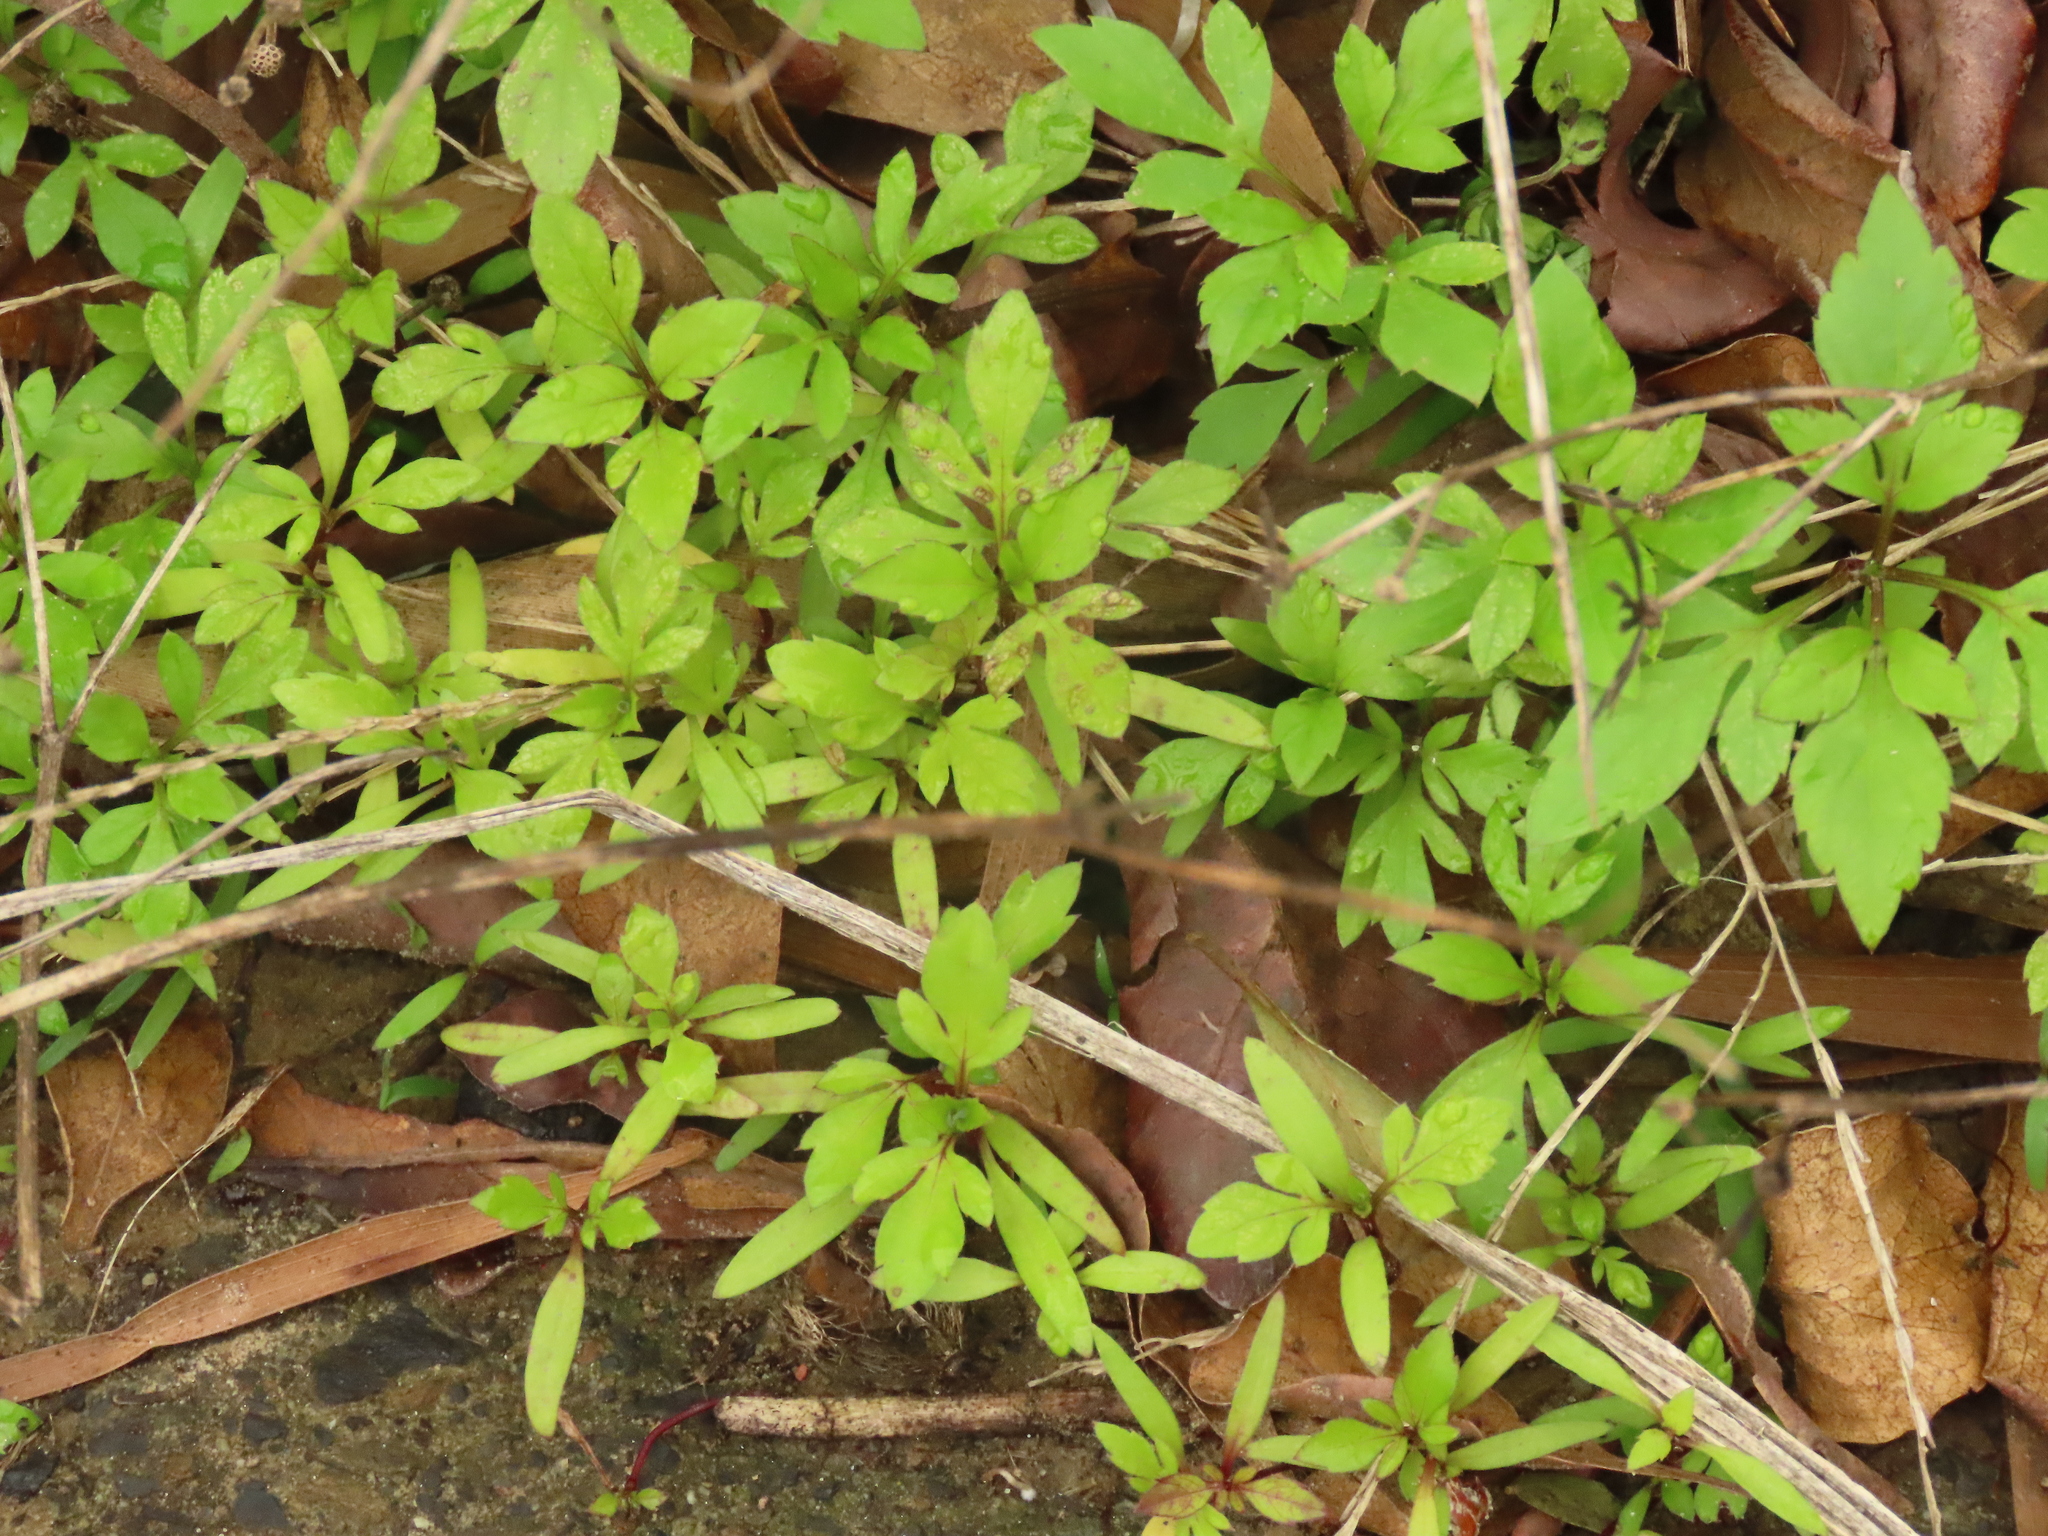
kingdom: Plantae
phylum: Tracheophyta
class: Magnoliopsida
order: Asterales
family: Asteraceae
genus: Bidens
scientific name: Bidens alba
